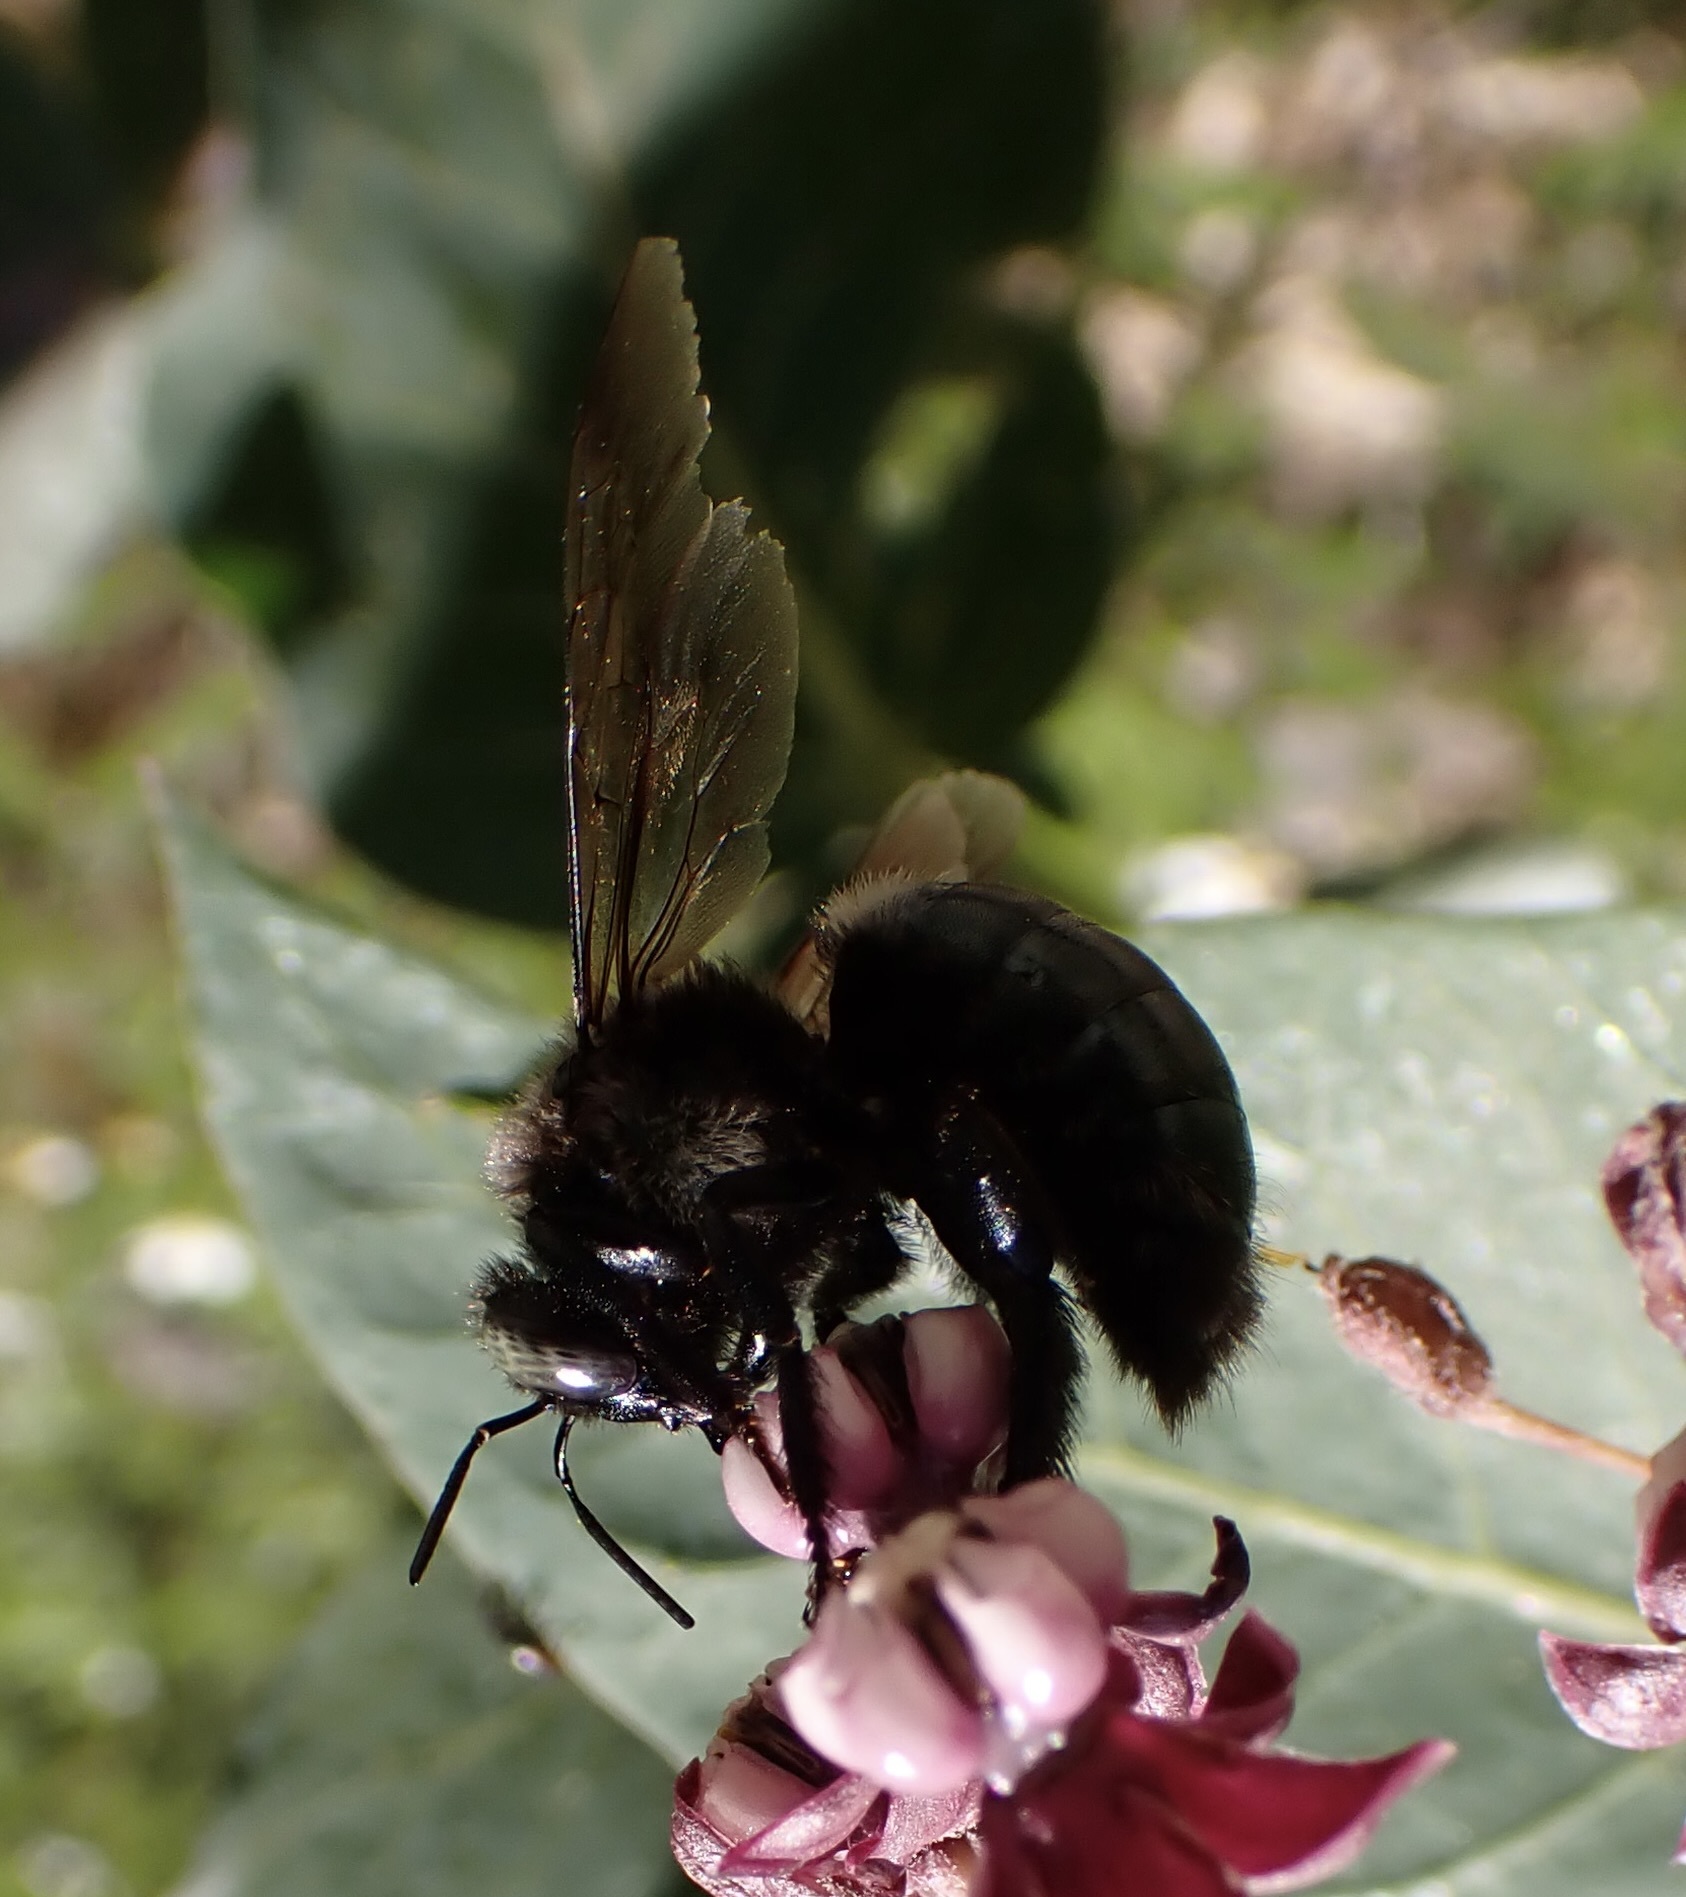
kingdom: Animalia
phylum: Arthropoda
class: Insecta
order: Hymenoptera
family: Apidae
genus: Xylocopa
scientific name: Xylocopa californica
